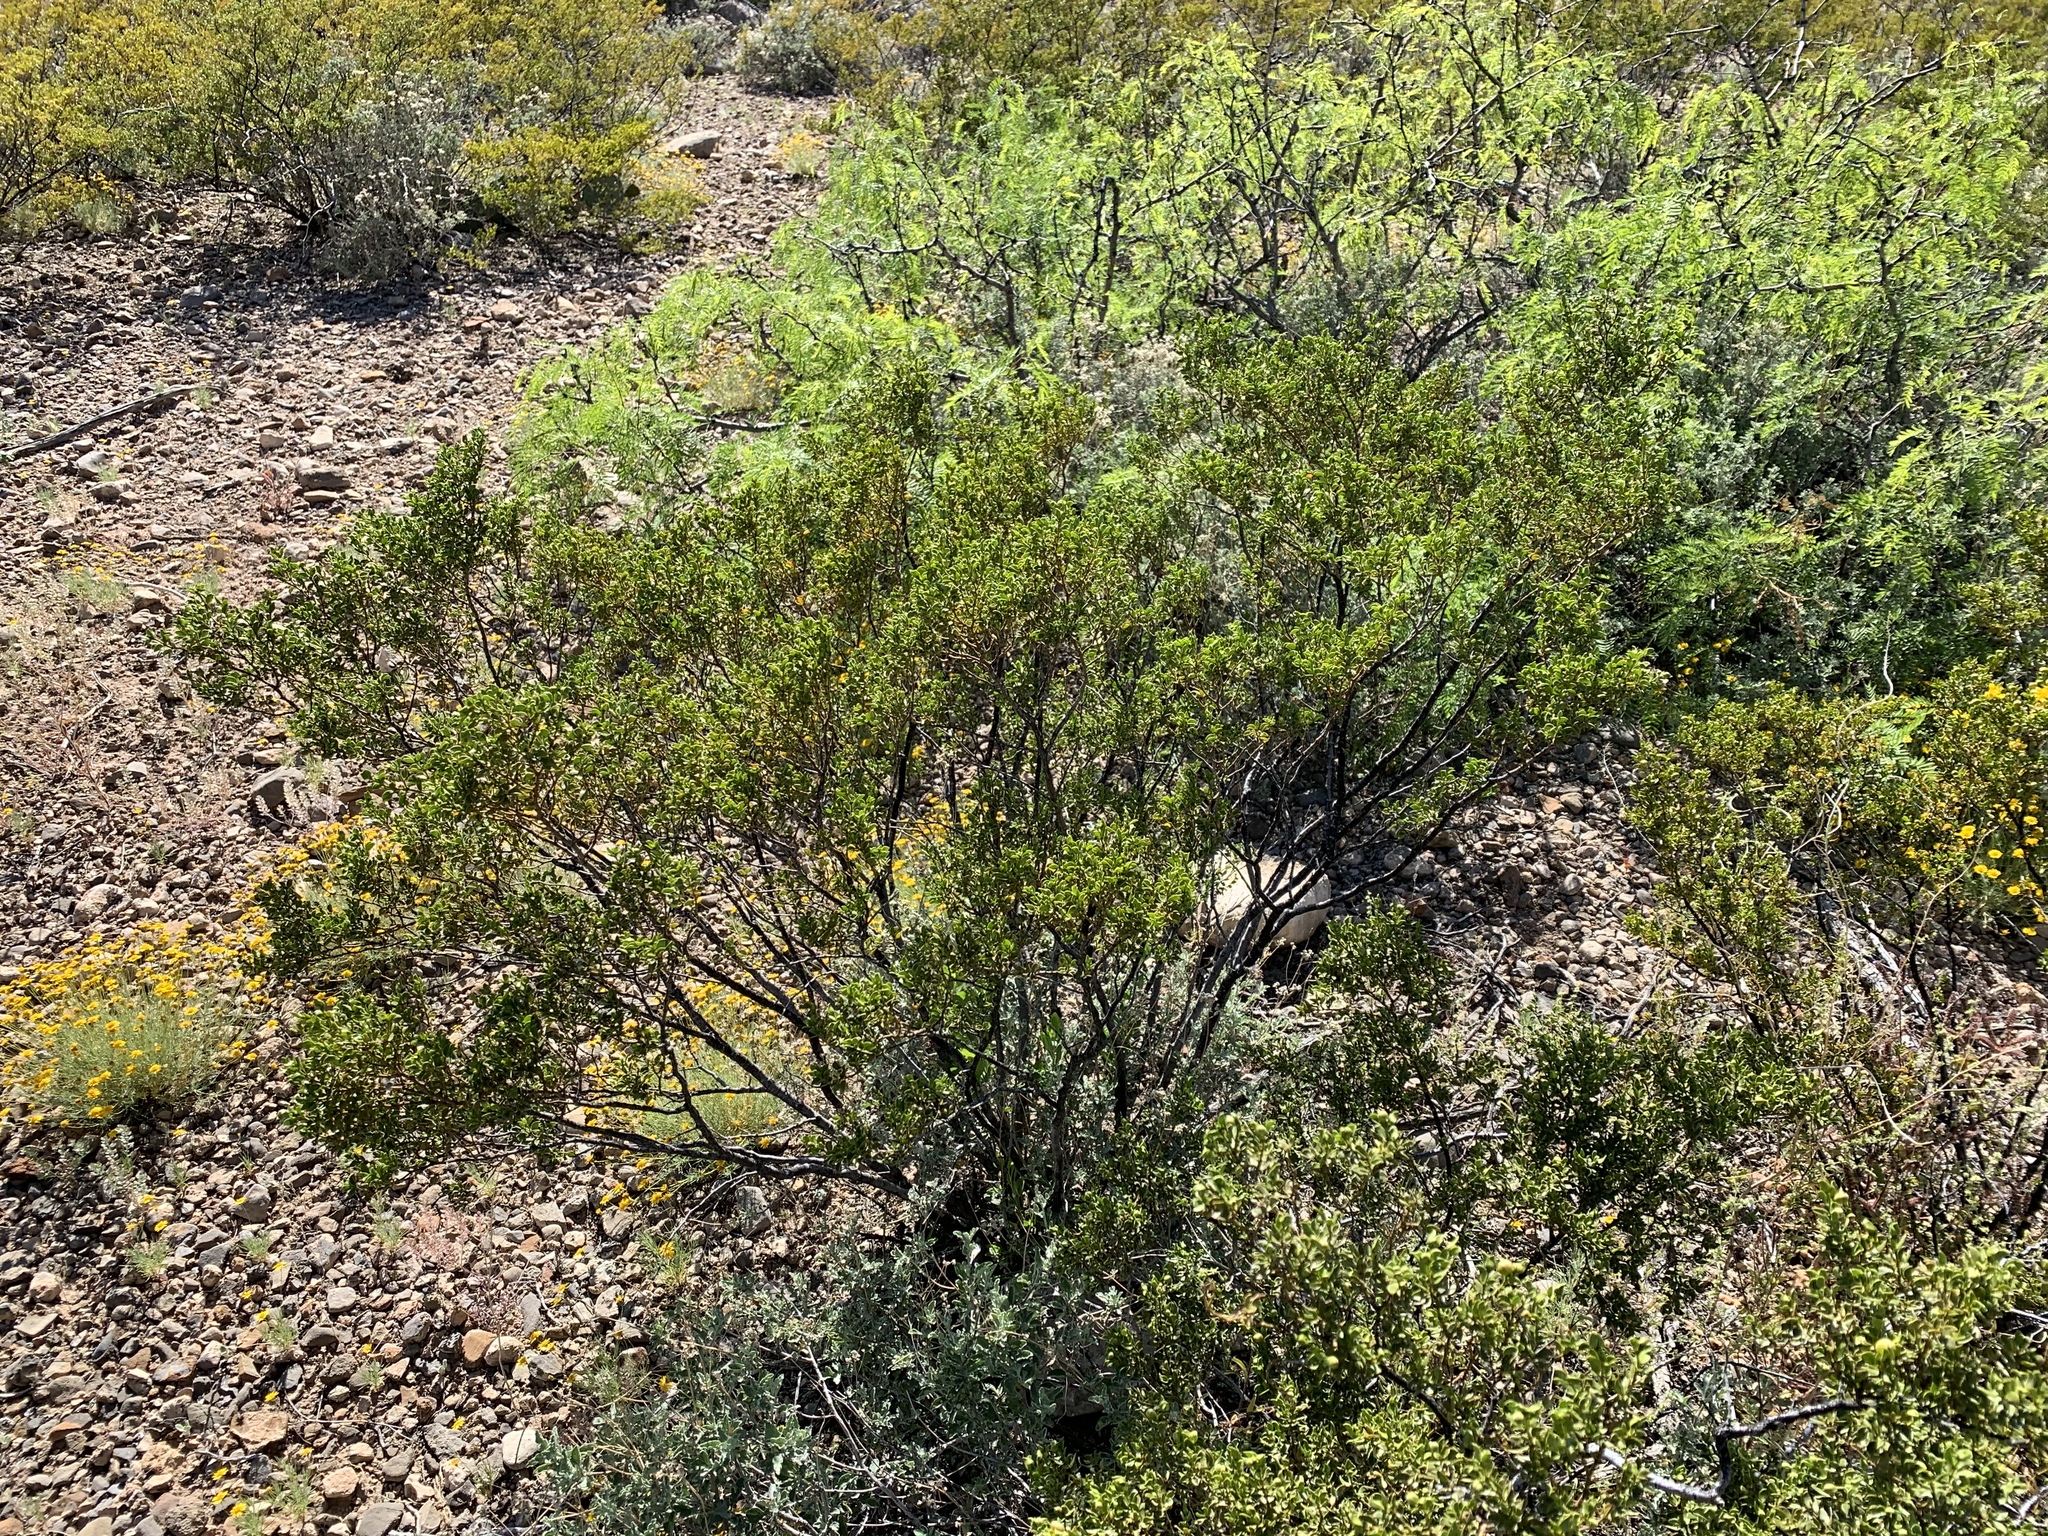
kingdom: Plantae
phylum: Tracheophyta
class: Magnoliopsida
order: Zygophyllales
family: Zygophyllaceae
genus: Larrea
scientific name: Larrea tridentata
